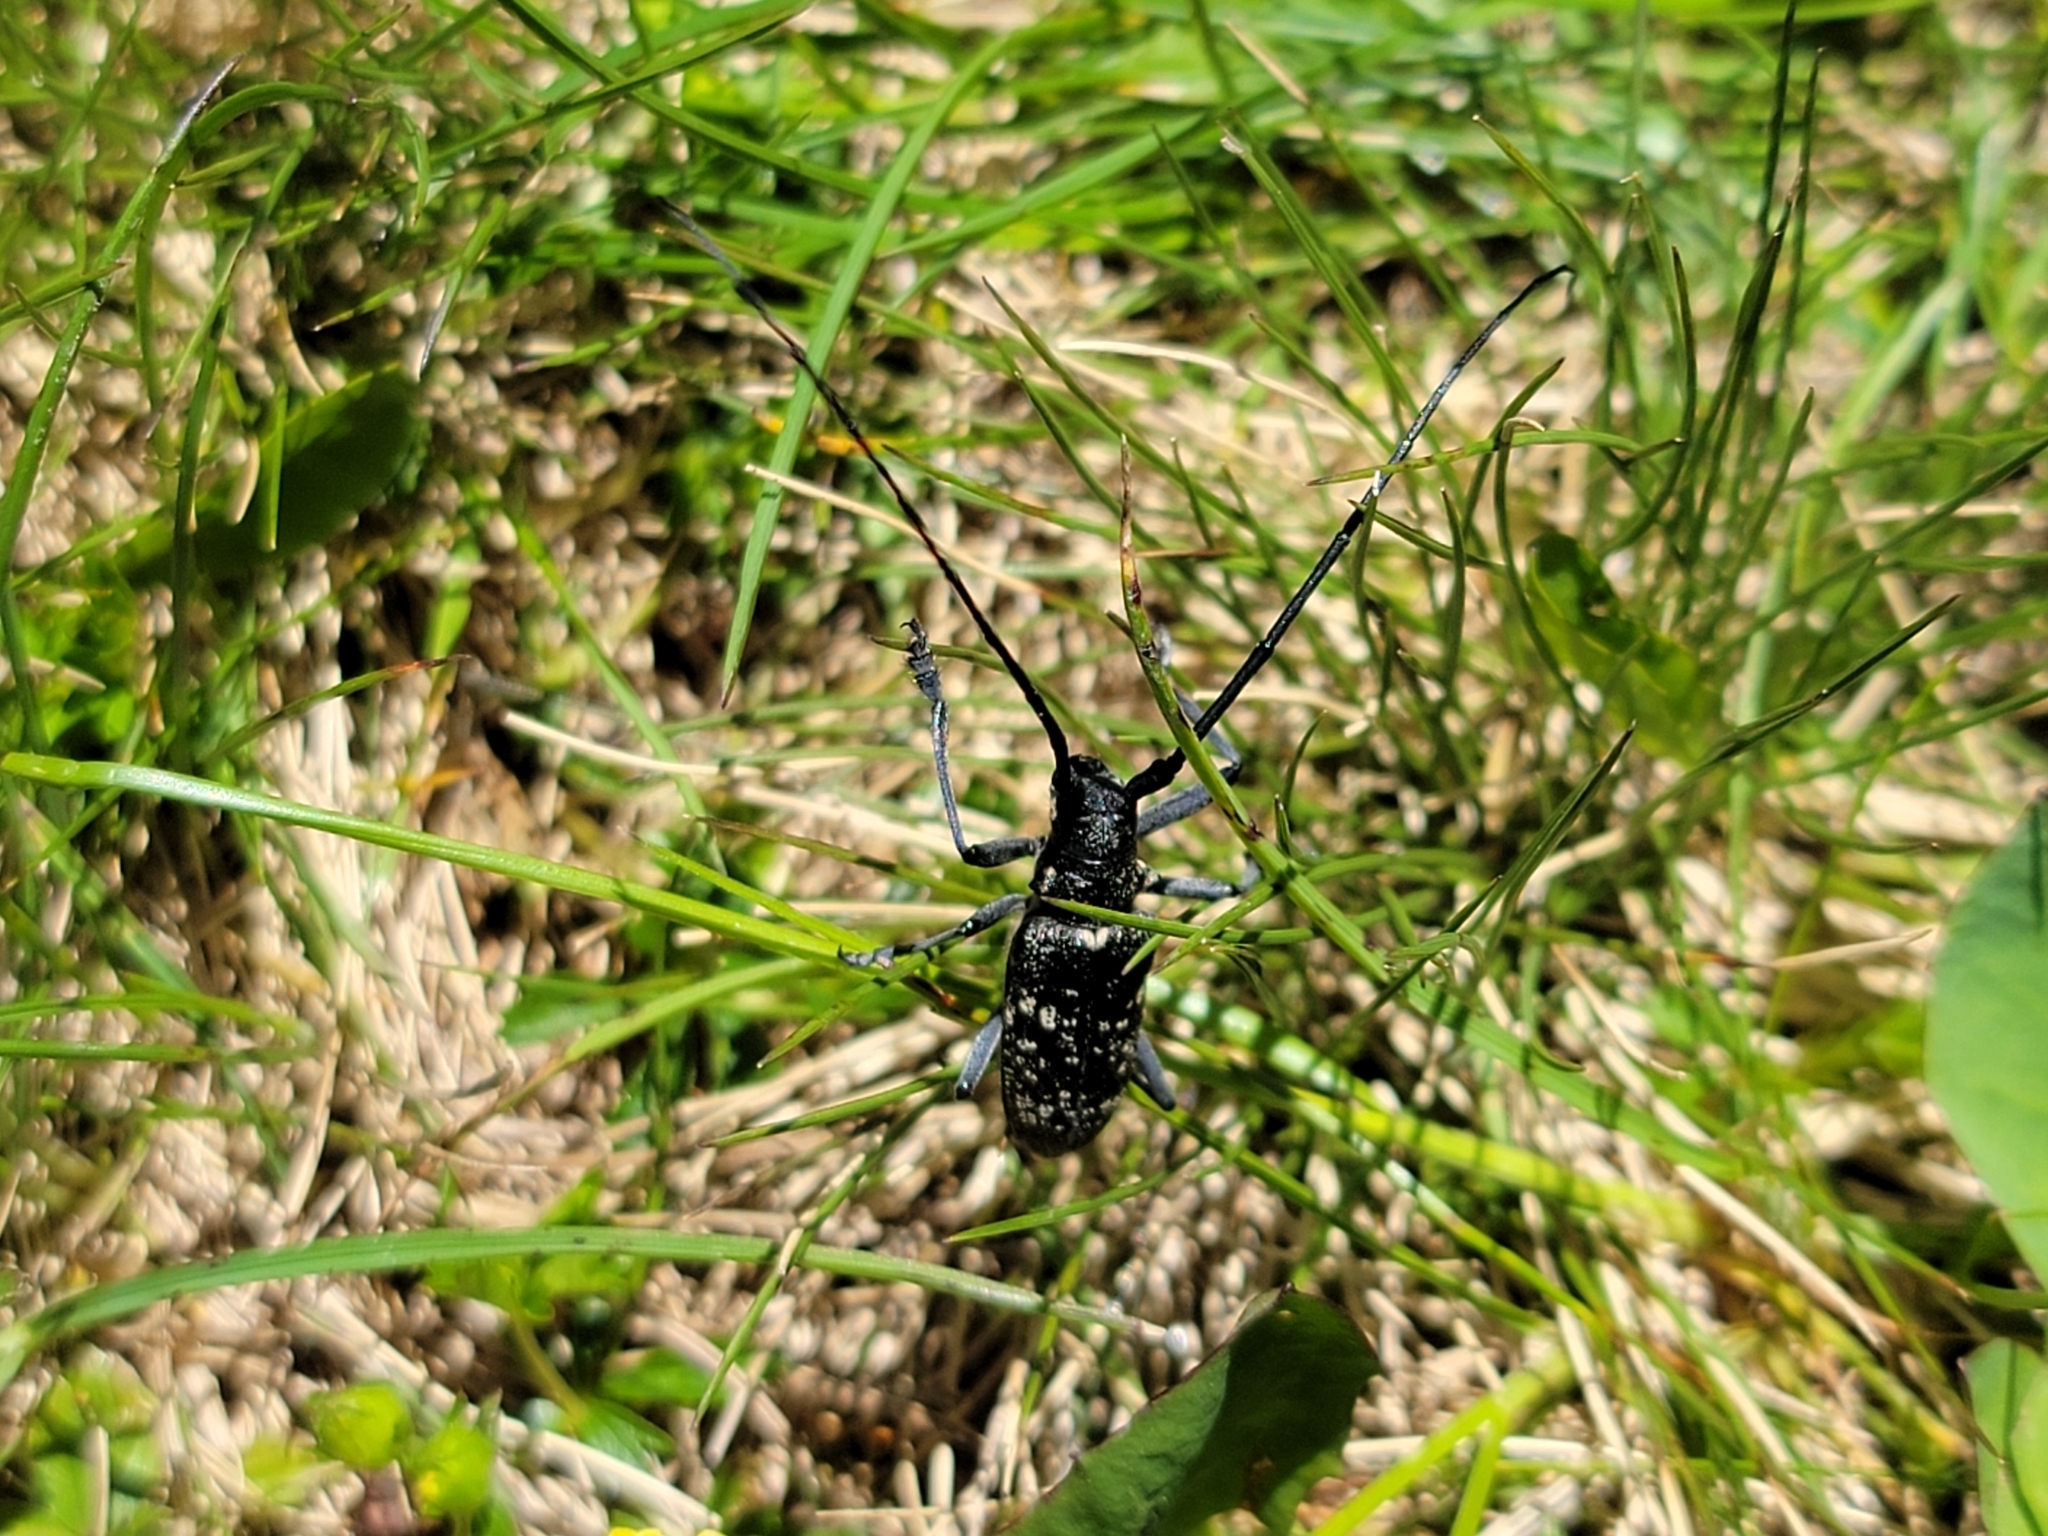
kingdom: Animalia
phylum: Arthropoda
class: Insecta
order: Coleoptera
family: Cerambycidae
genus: Monochamus
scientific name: Monochamus sutor
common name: Pine sawyer
